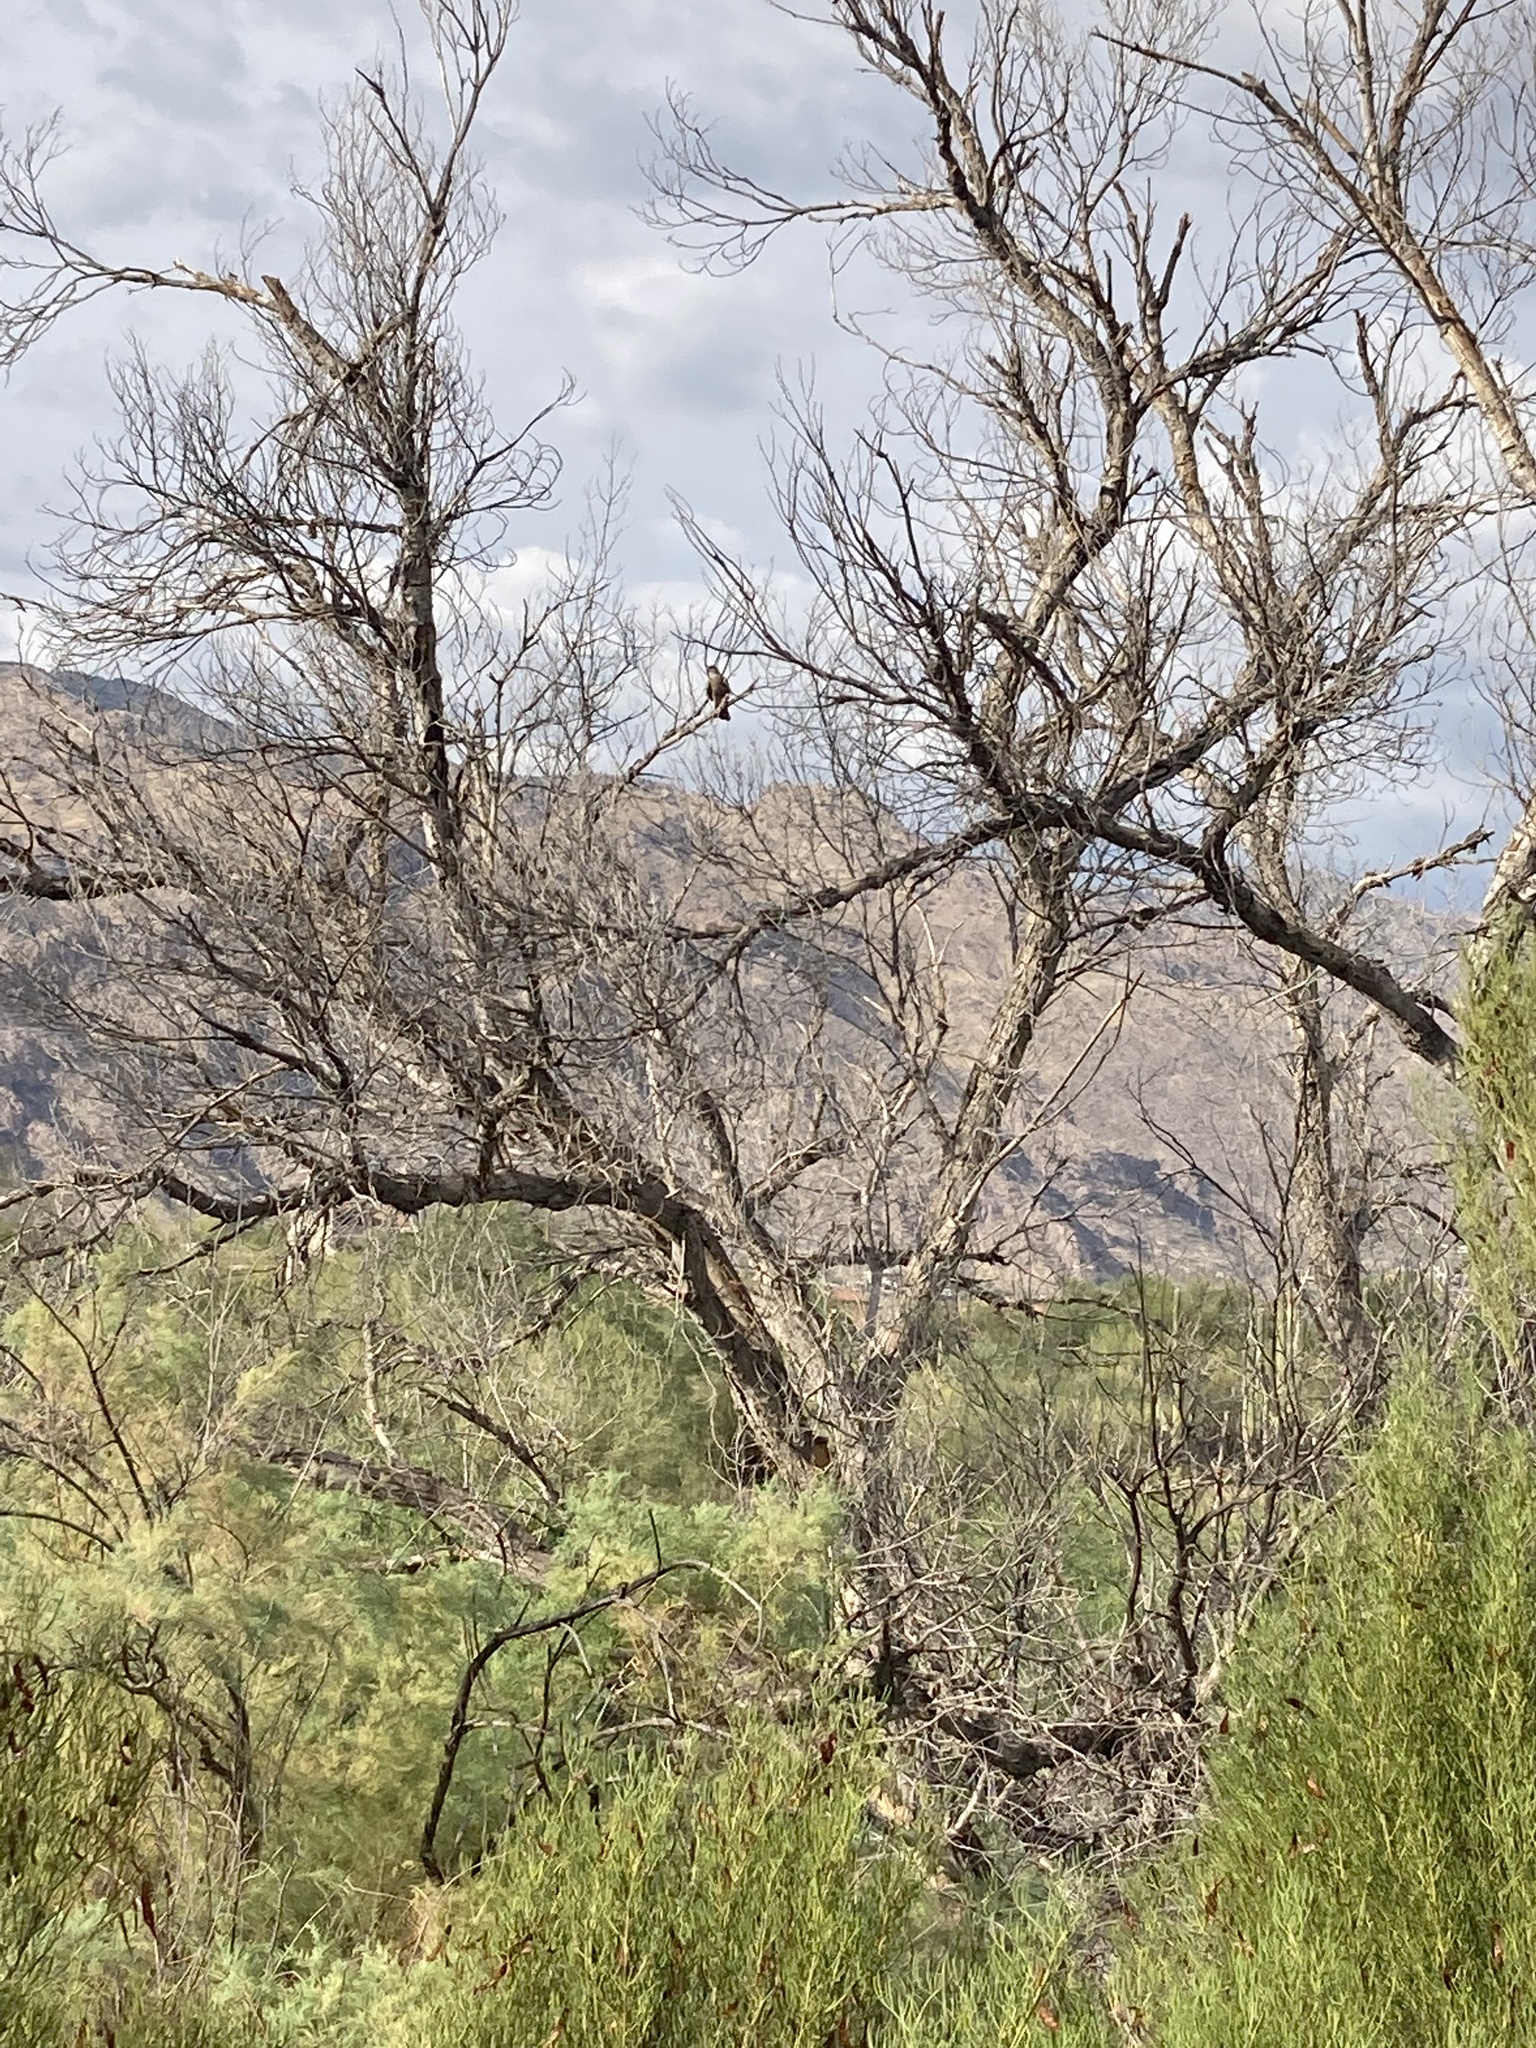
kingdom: Animalia
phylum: Chordata
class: Aves
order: Accipitriformes
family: Accipitridae
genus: Accipiter
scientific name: Accipiter cooperii
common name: Cooper's hawk
